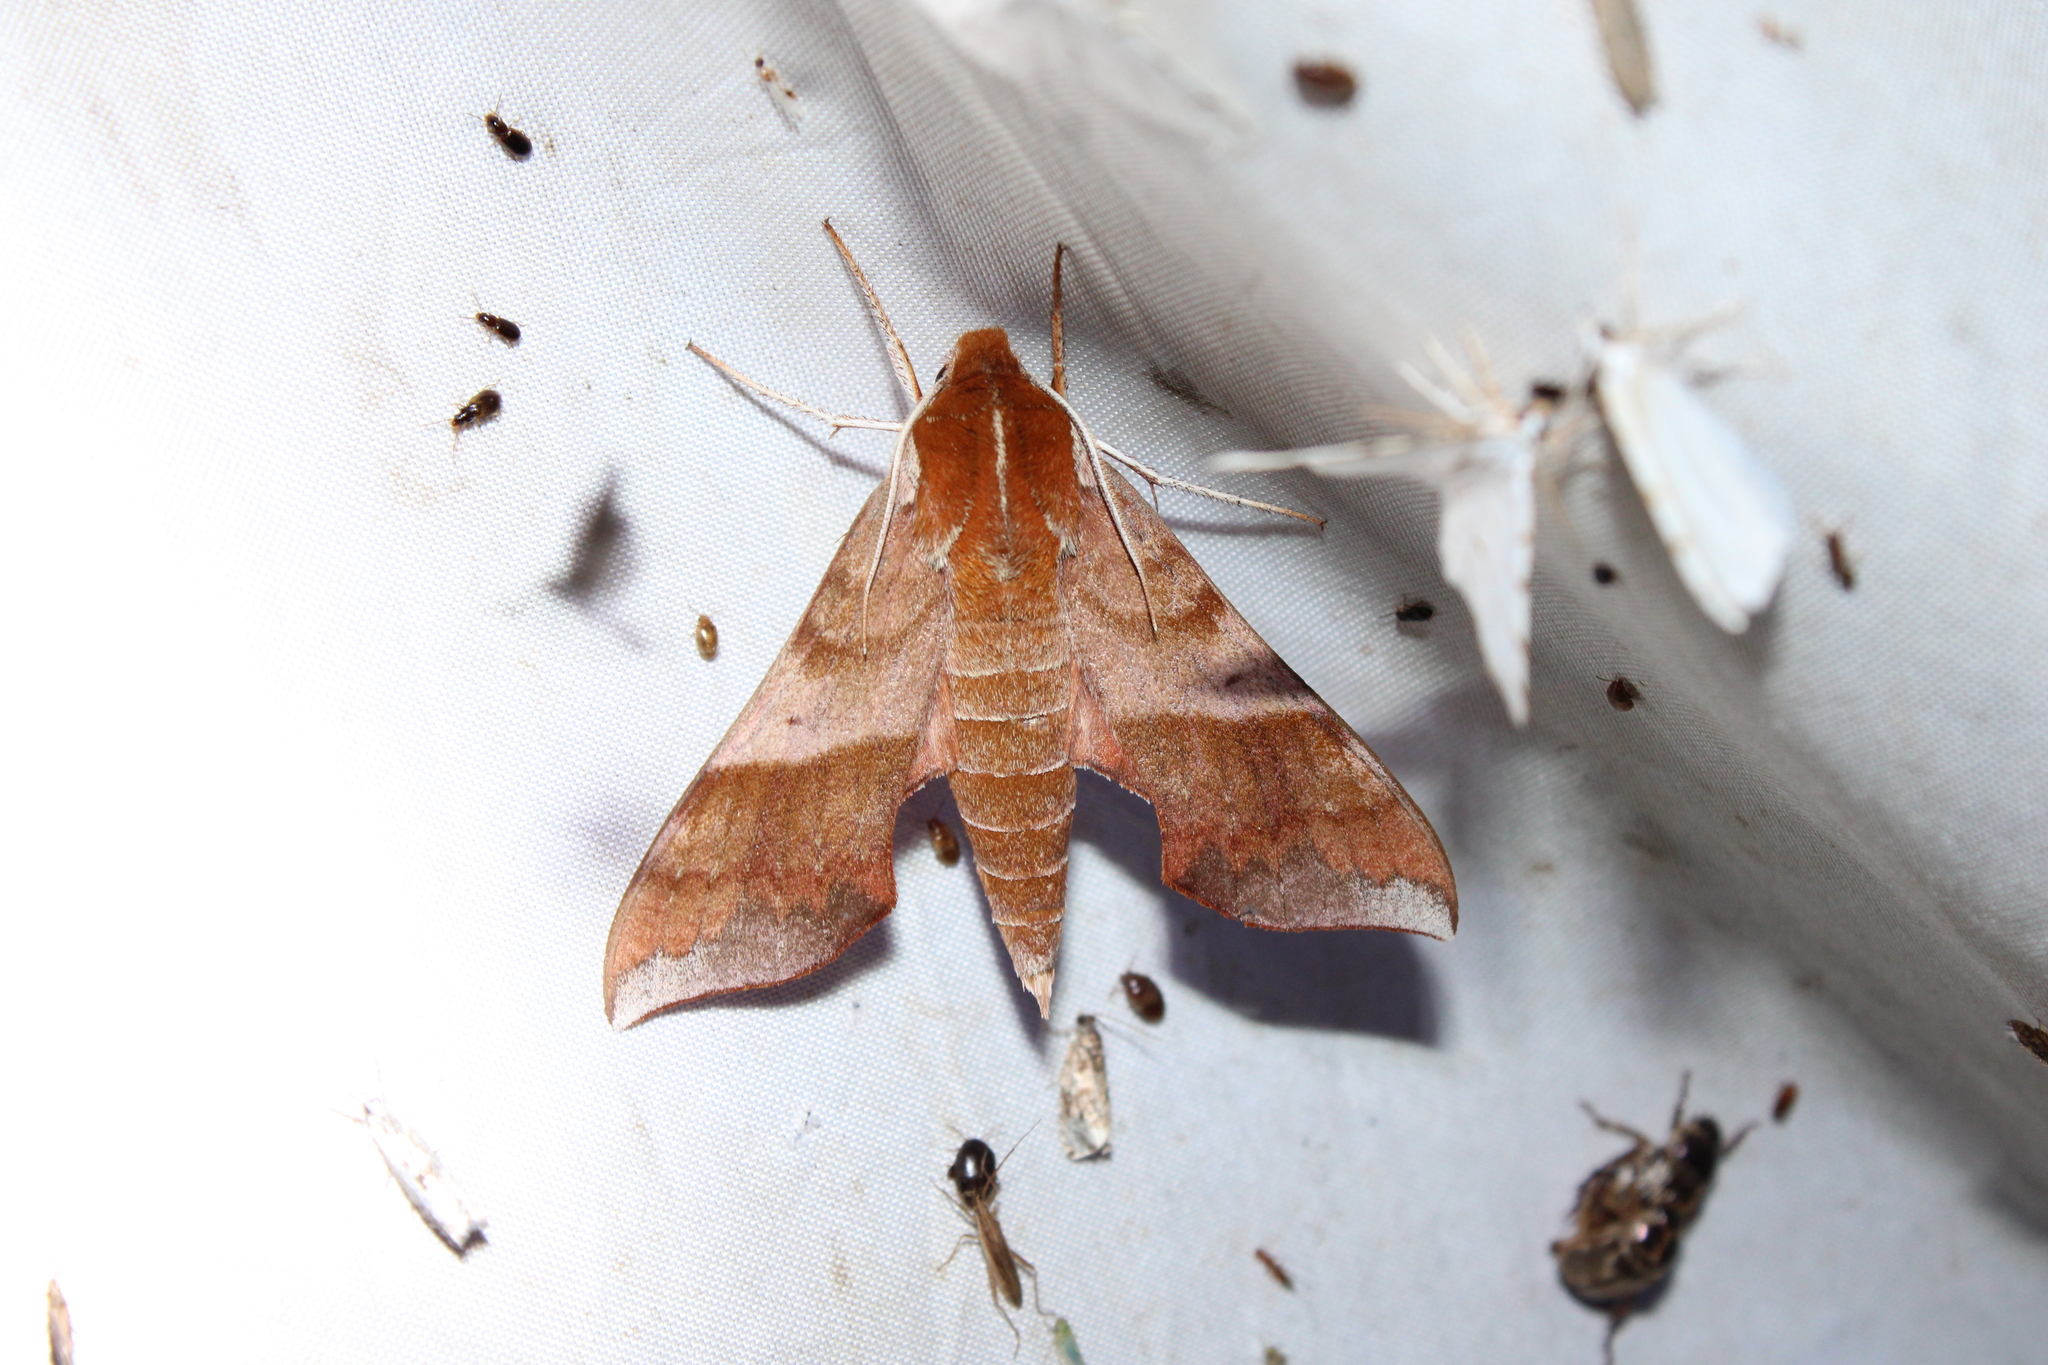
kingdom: Animalia
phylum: Arthropoda
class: Insecta
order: Lepidoptera
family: Sphingidae
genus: Darapsa
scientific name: Darapsa choerilus
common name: Azalea sphinx
